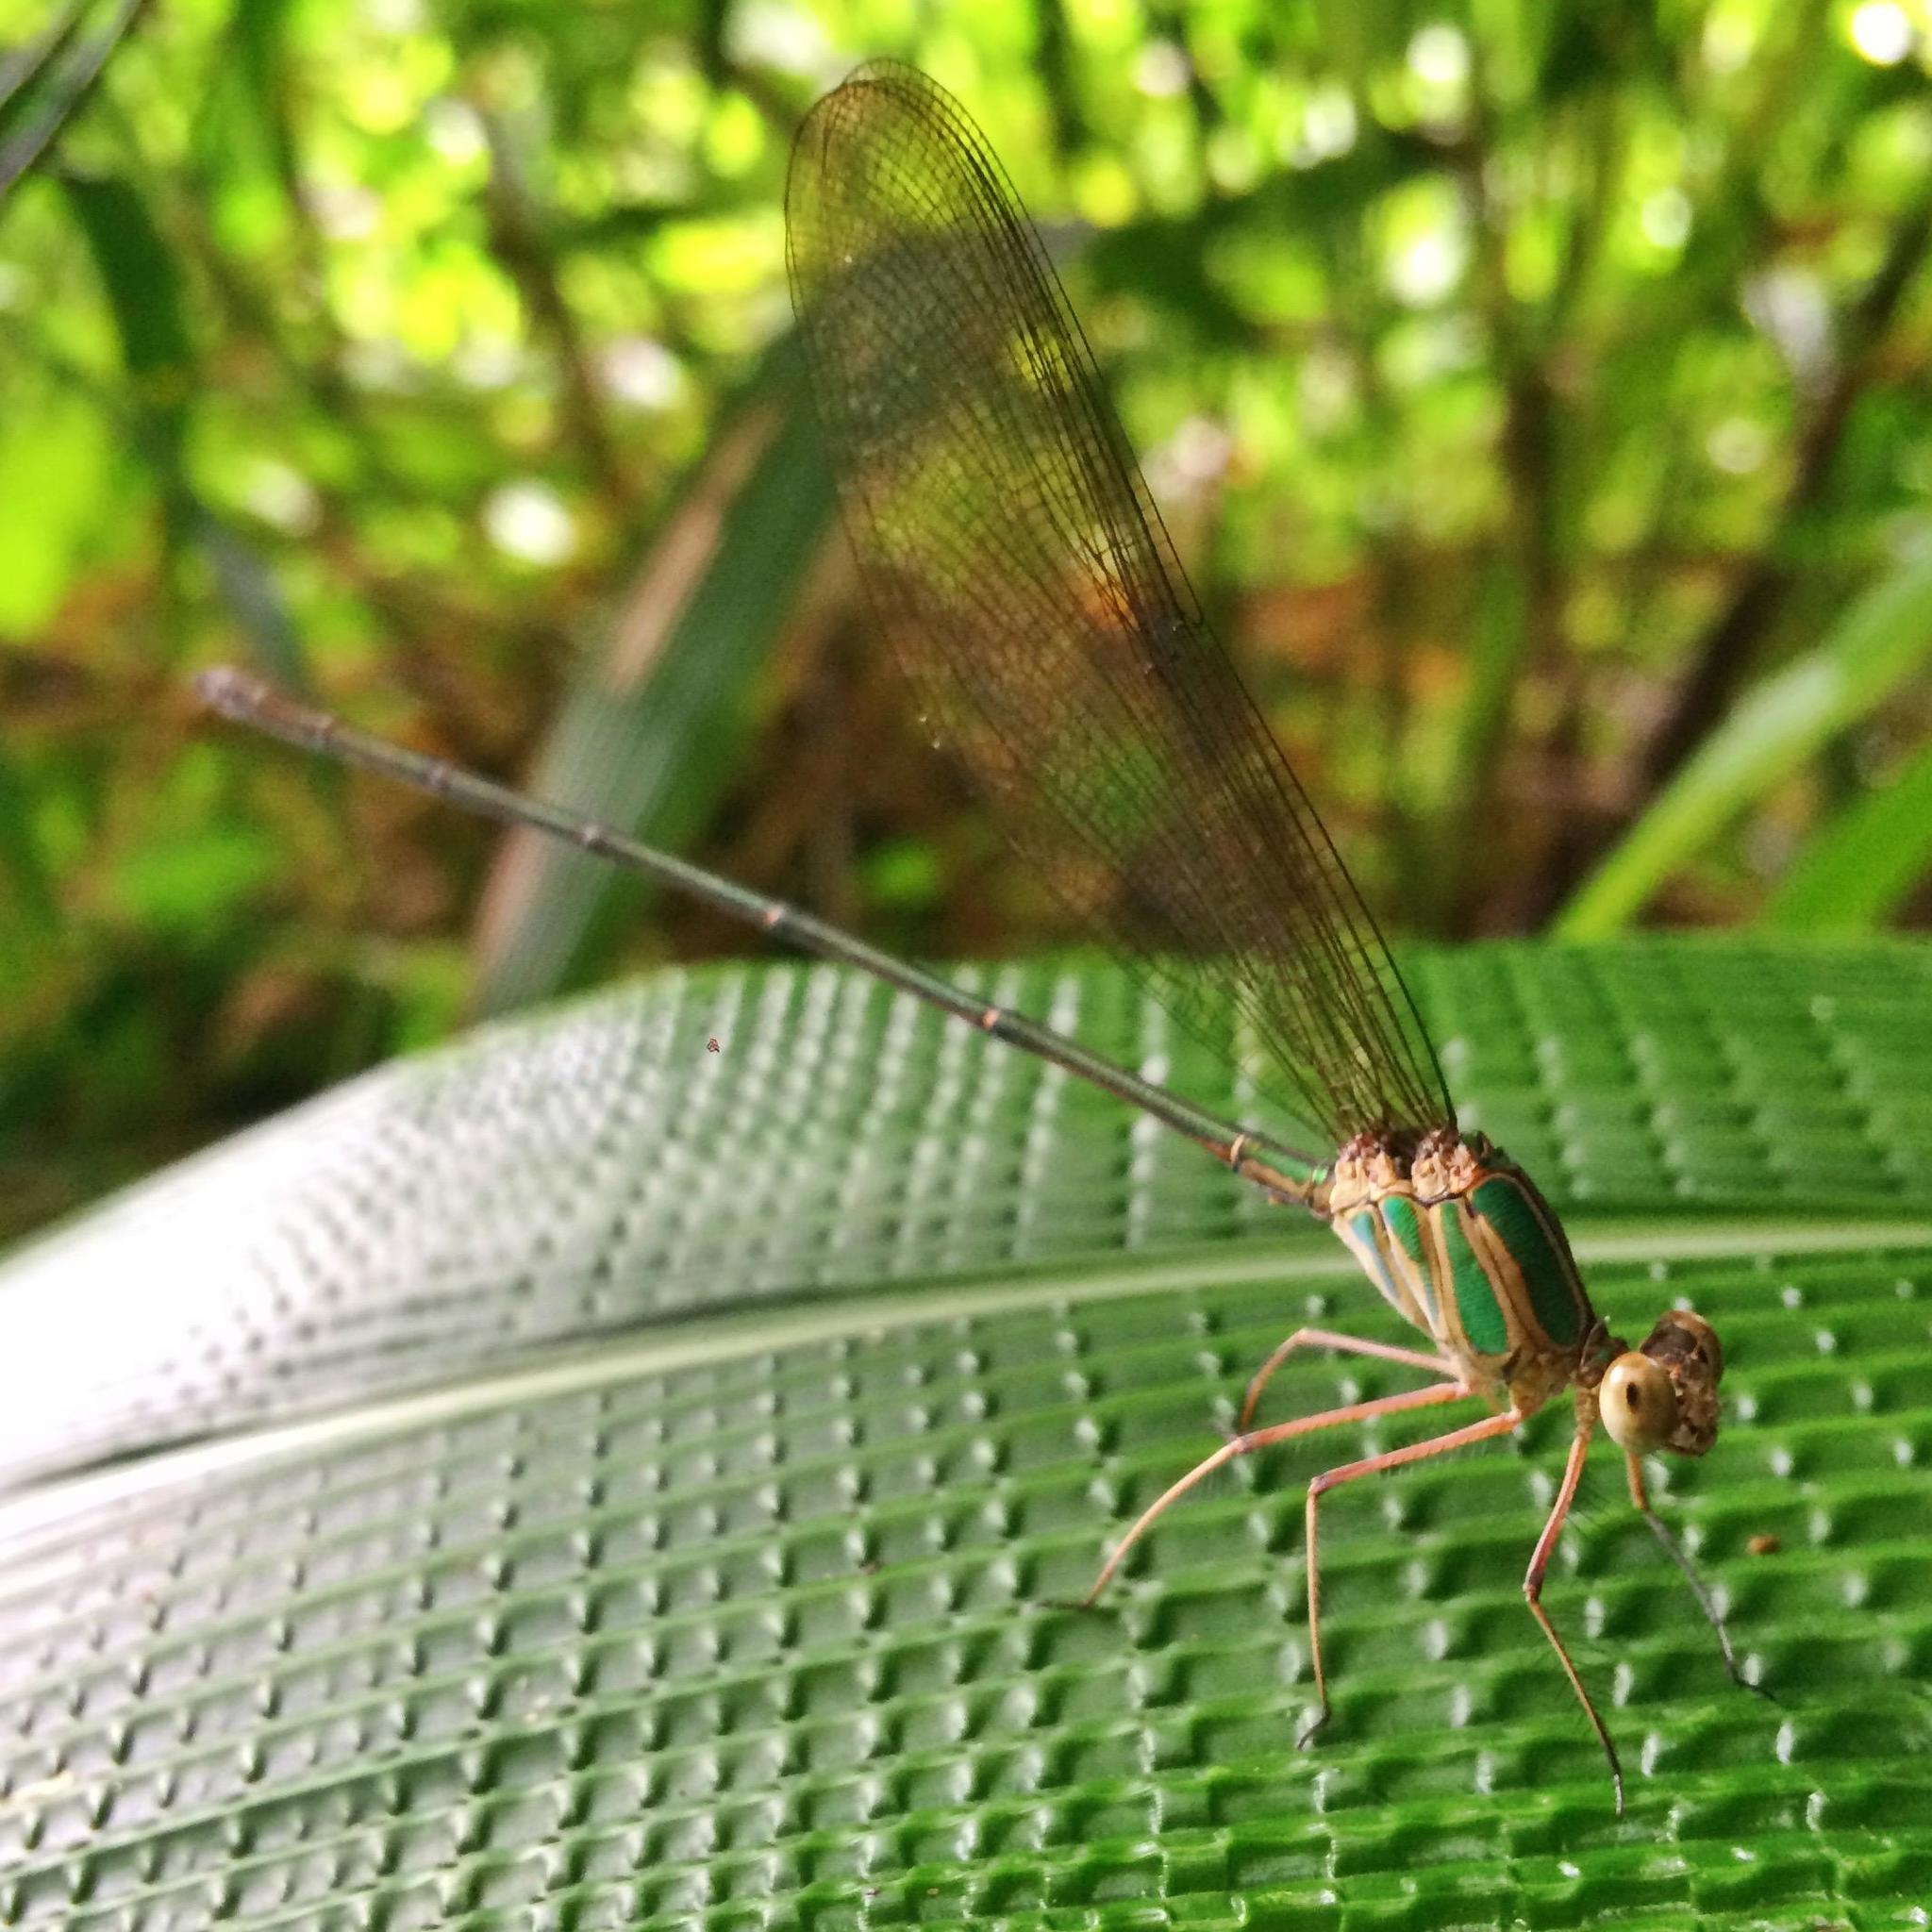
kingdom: Animalia
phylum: Arthropoda
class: Insecta
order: Odonata
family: Calopterygidae
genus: Phaon
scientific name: Phaon iridipennis
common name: Glistening demoiselle
